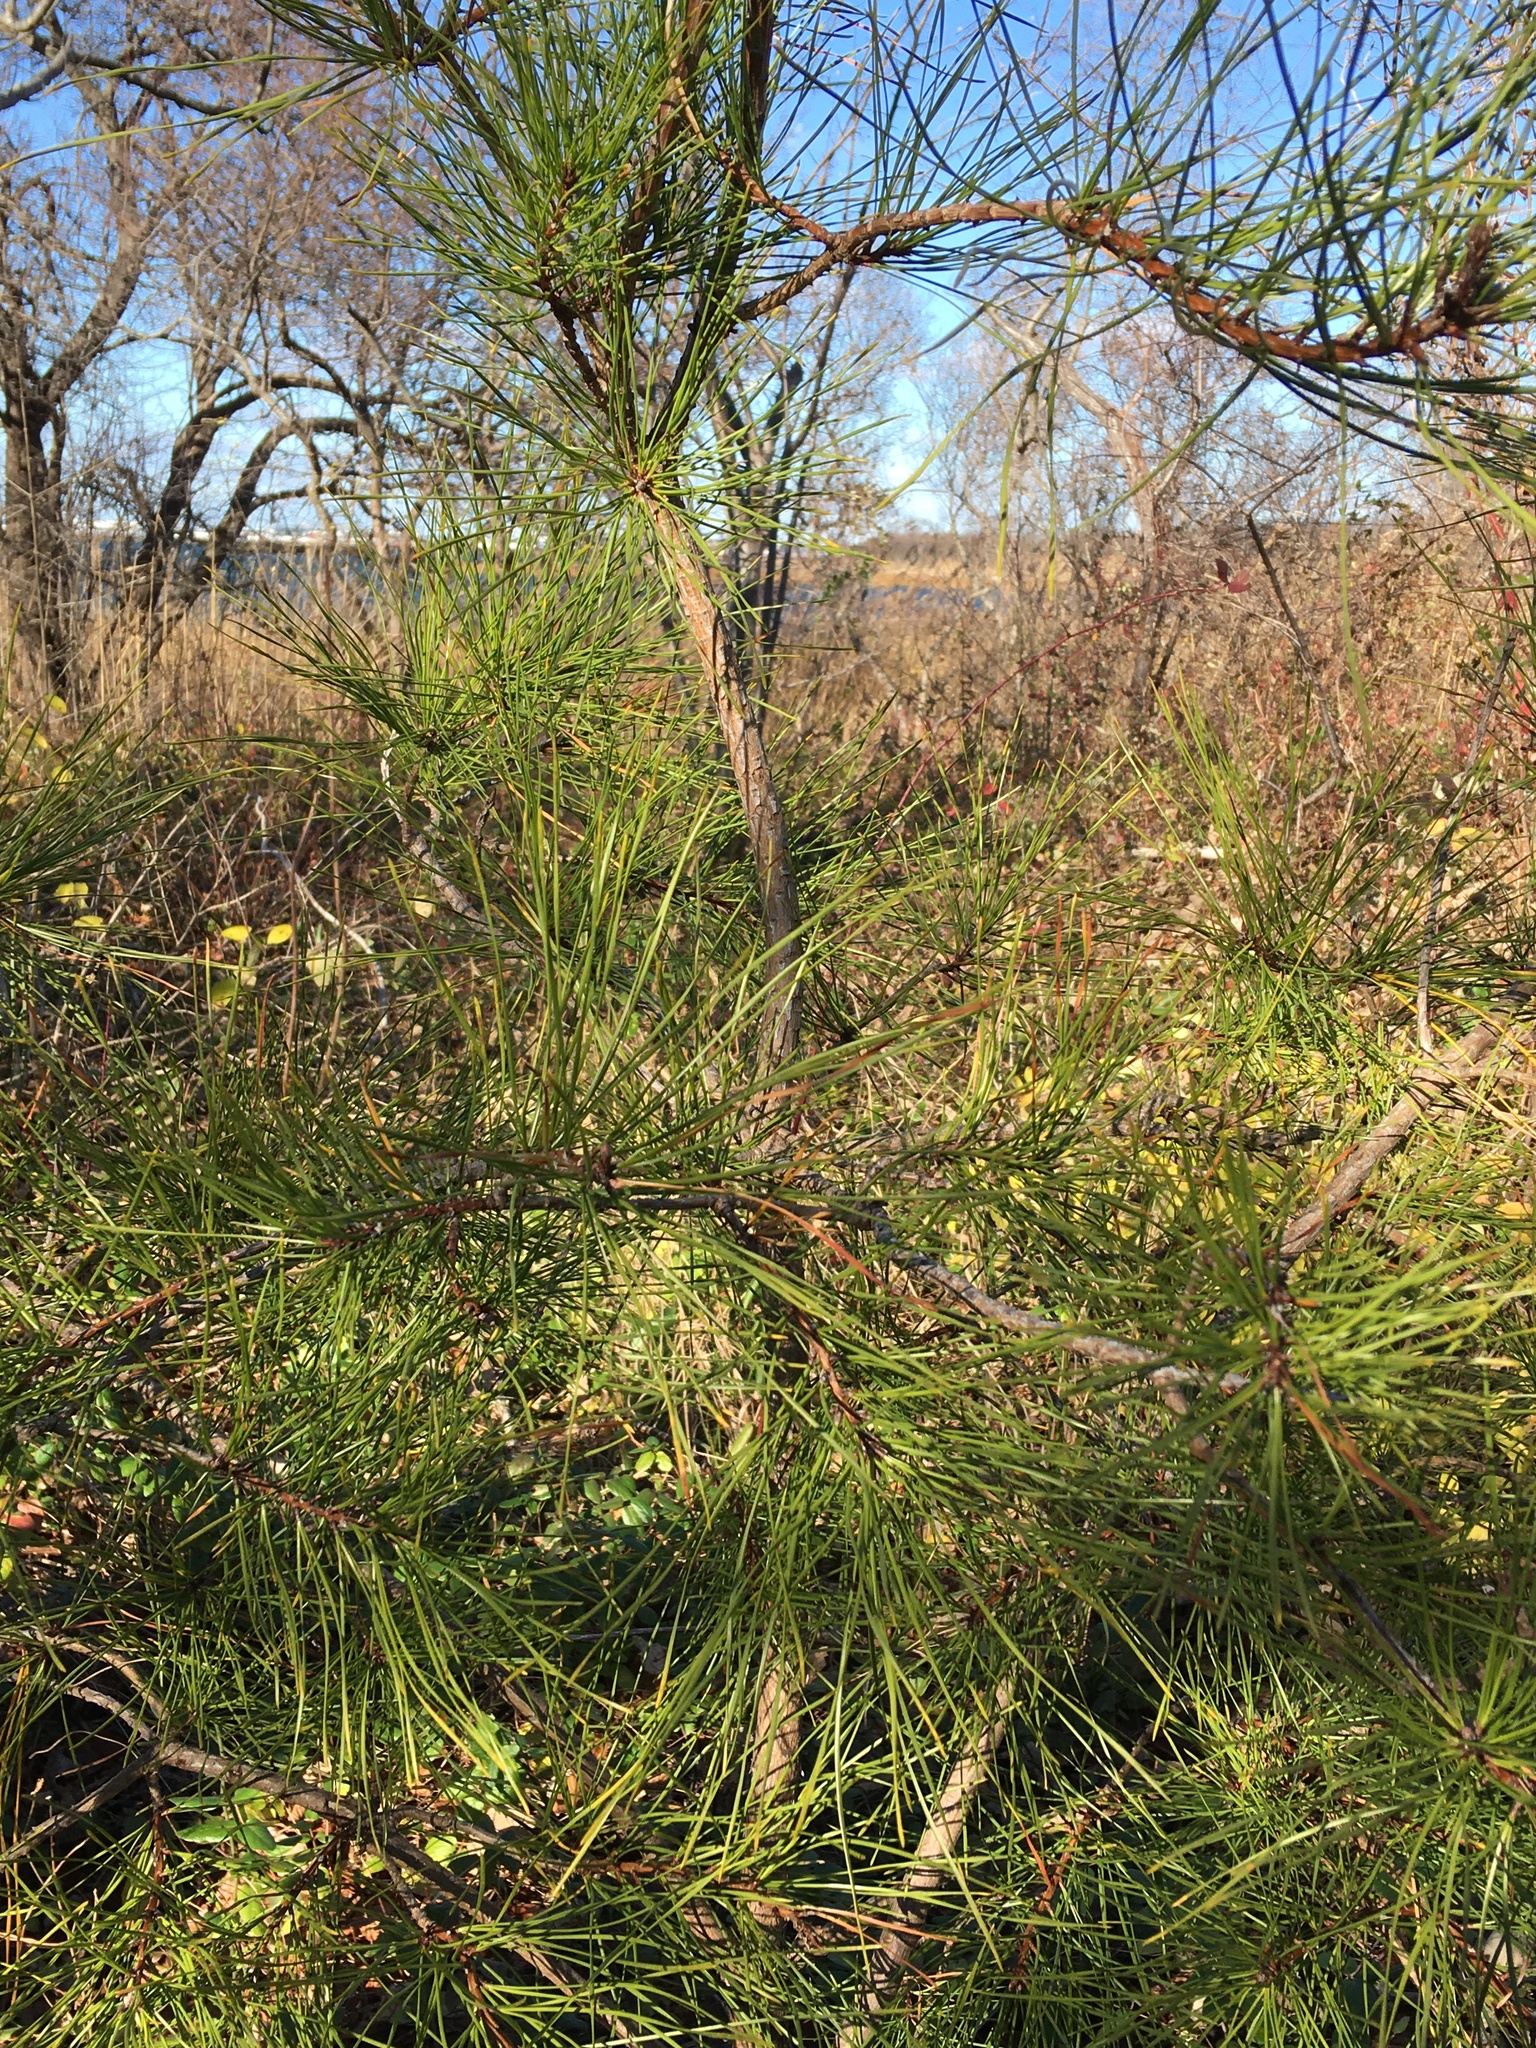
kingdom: Plantae
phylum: Tracheophyta
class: Pinopsida
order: Pinales
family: Pinaceae
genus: Pinus
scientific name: Pinus rigida
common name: Pitch pine
